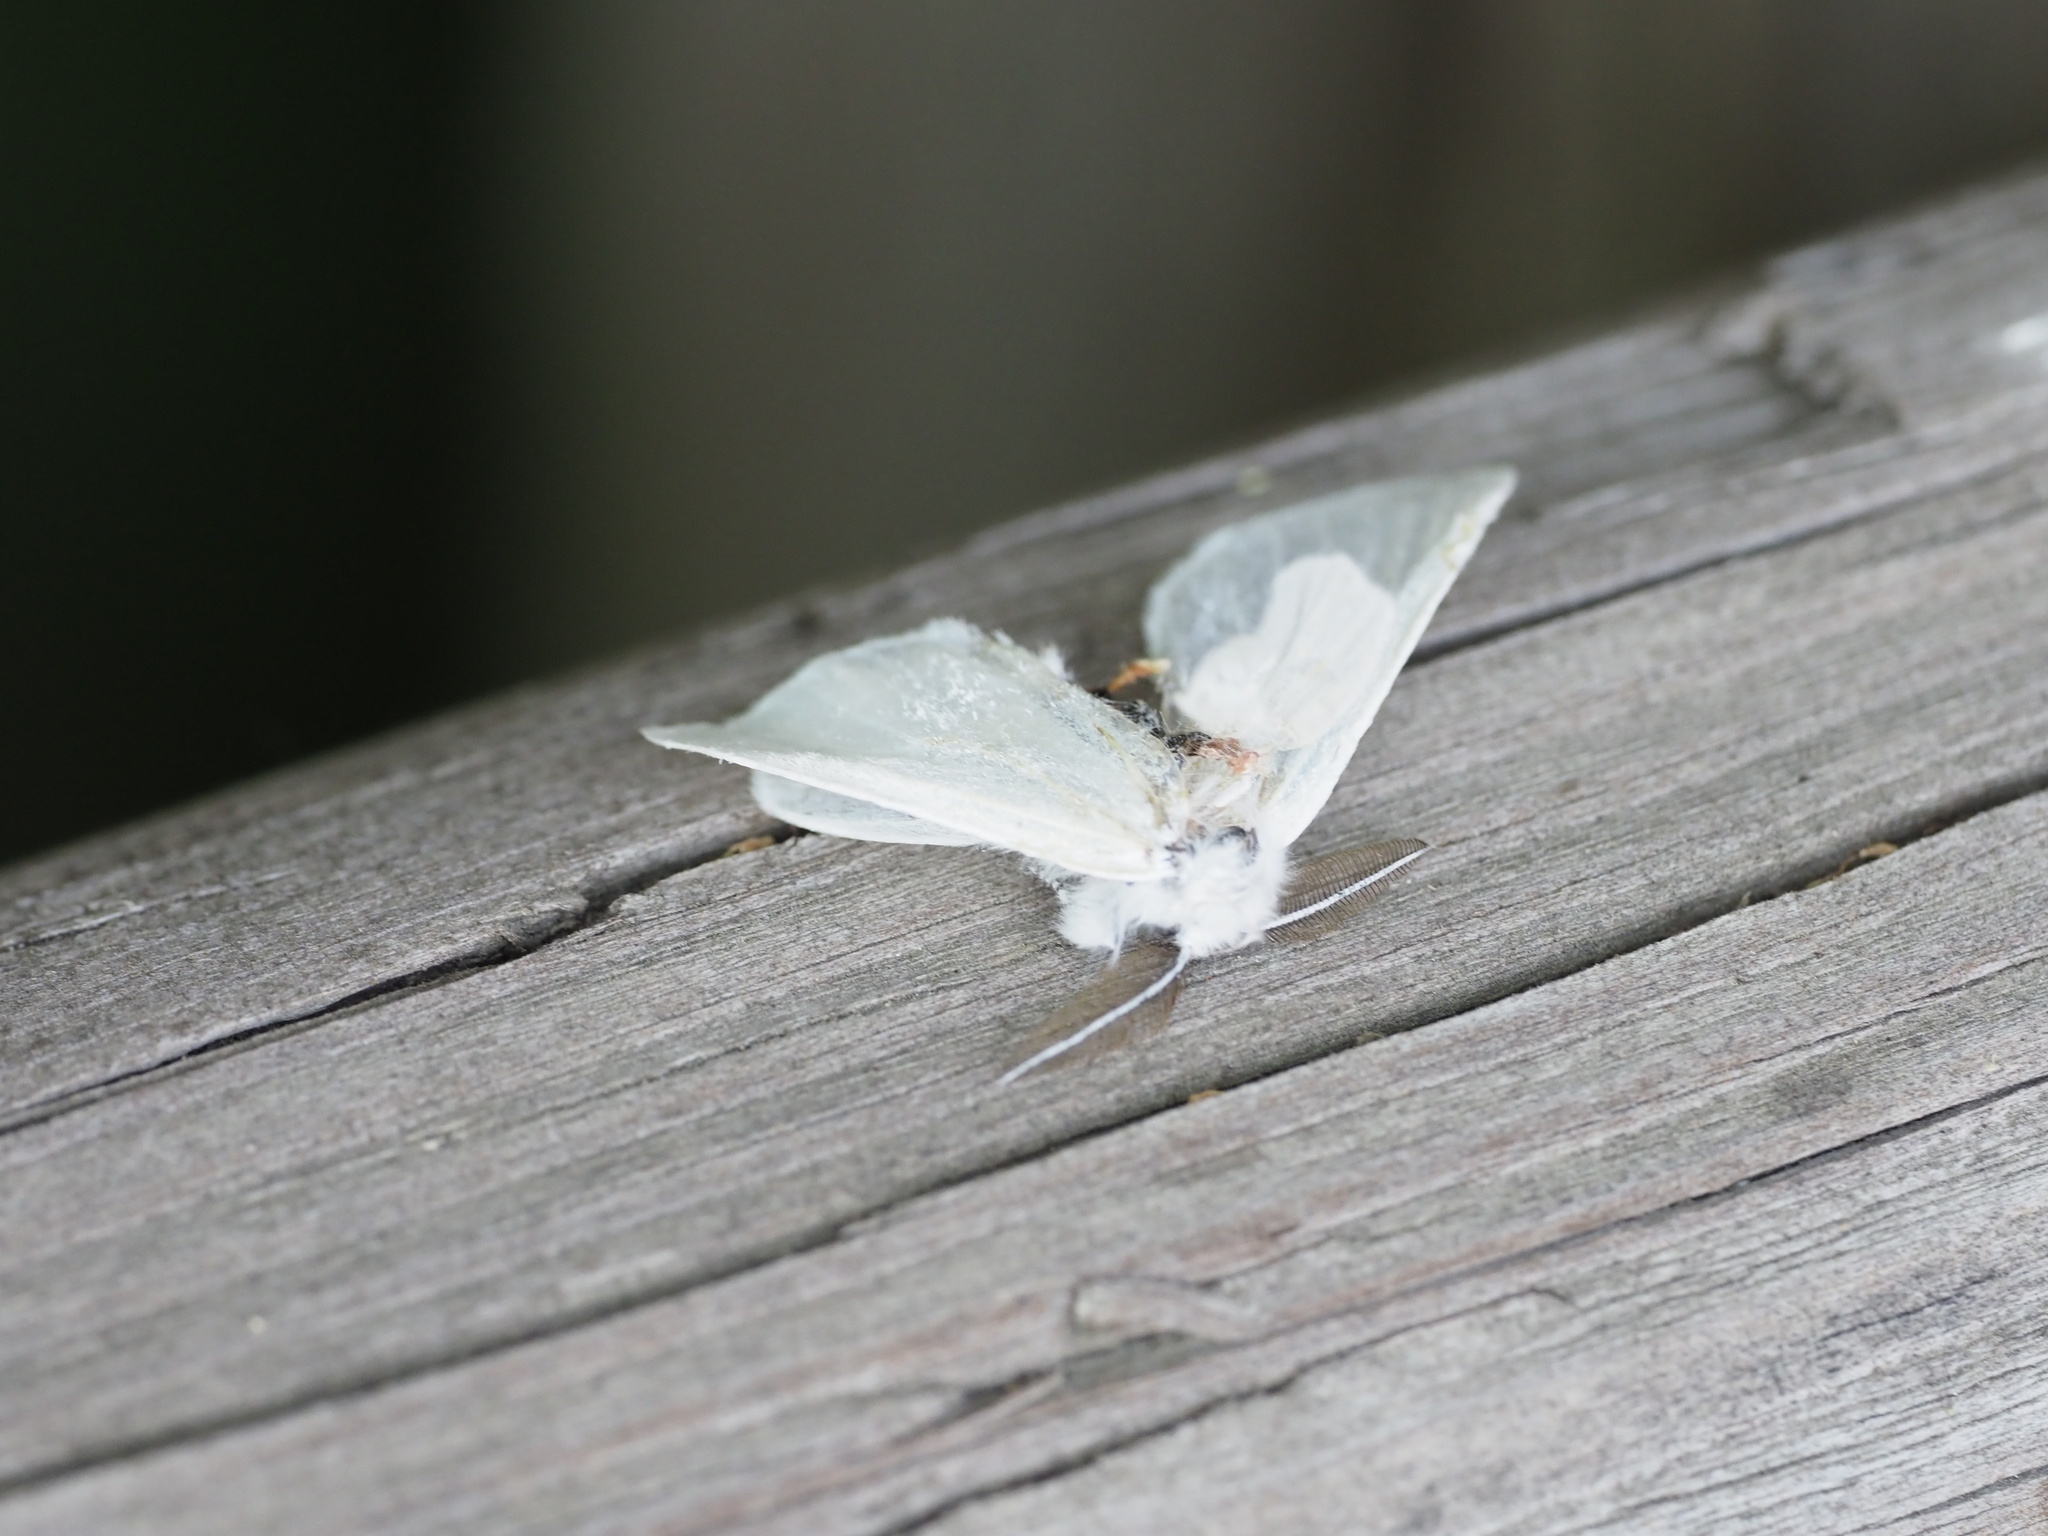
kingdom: Animalia
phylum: Arthropoda
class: Insecta
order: Lepidoptera
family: Erebidae
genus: Leucoma
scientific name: Leucoma salicis
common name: White satin moth
